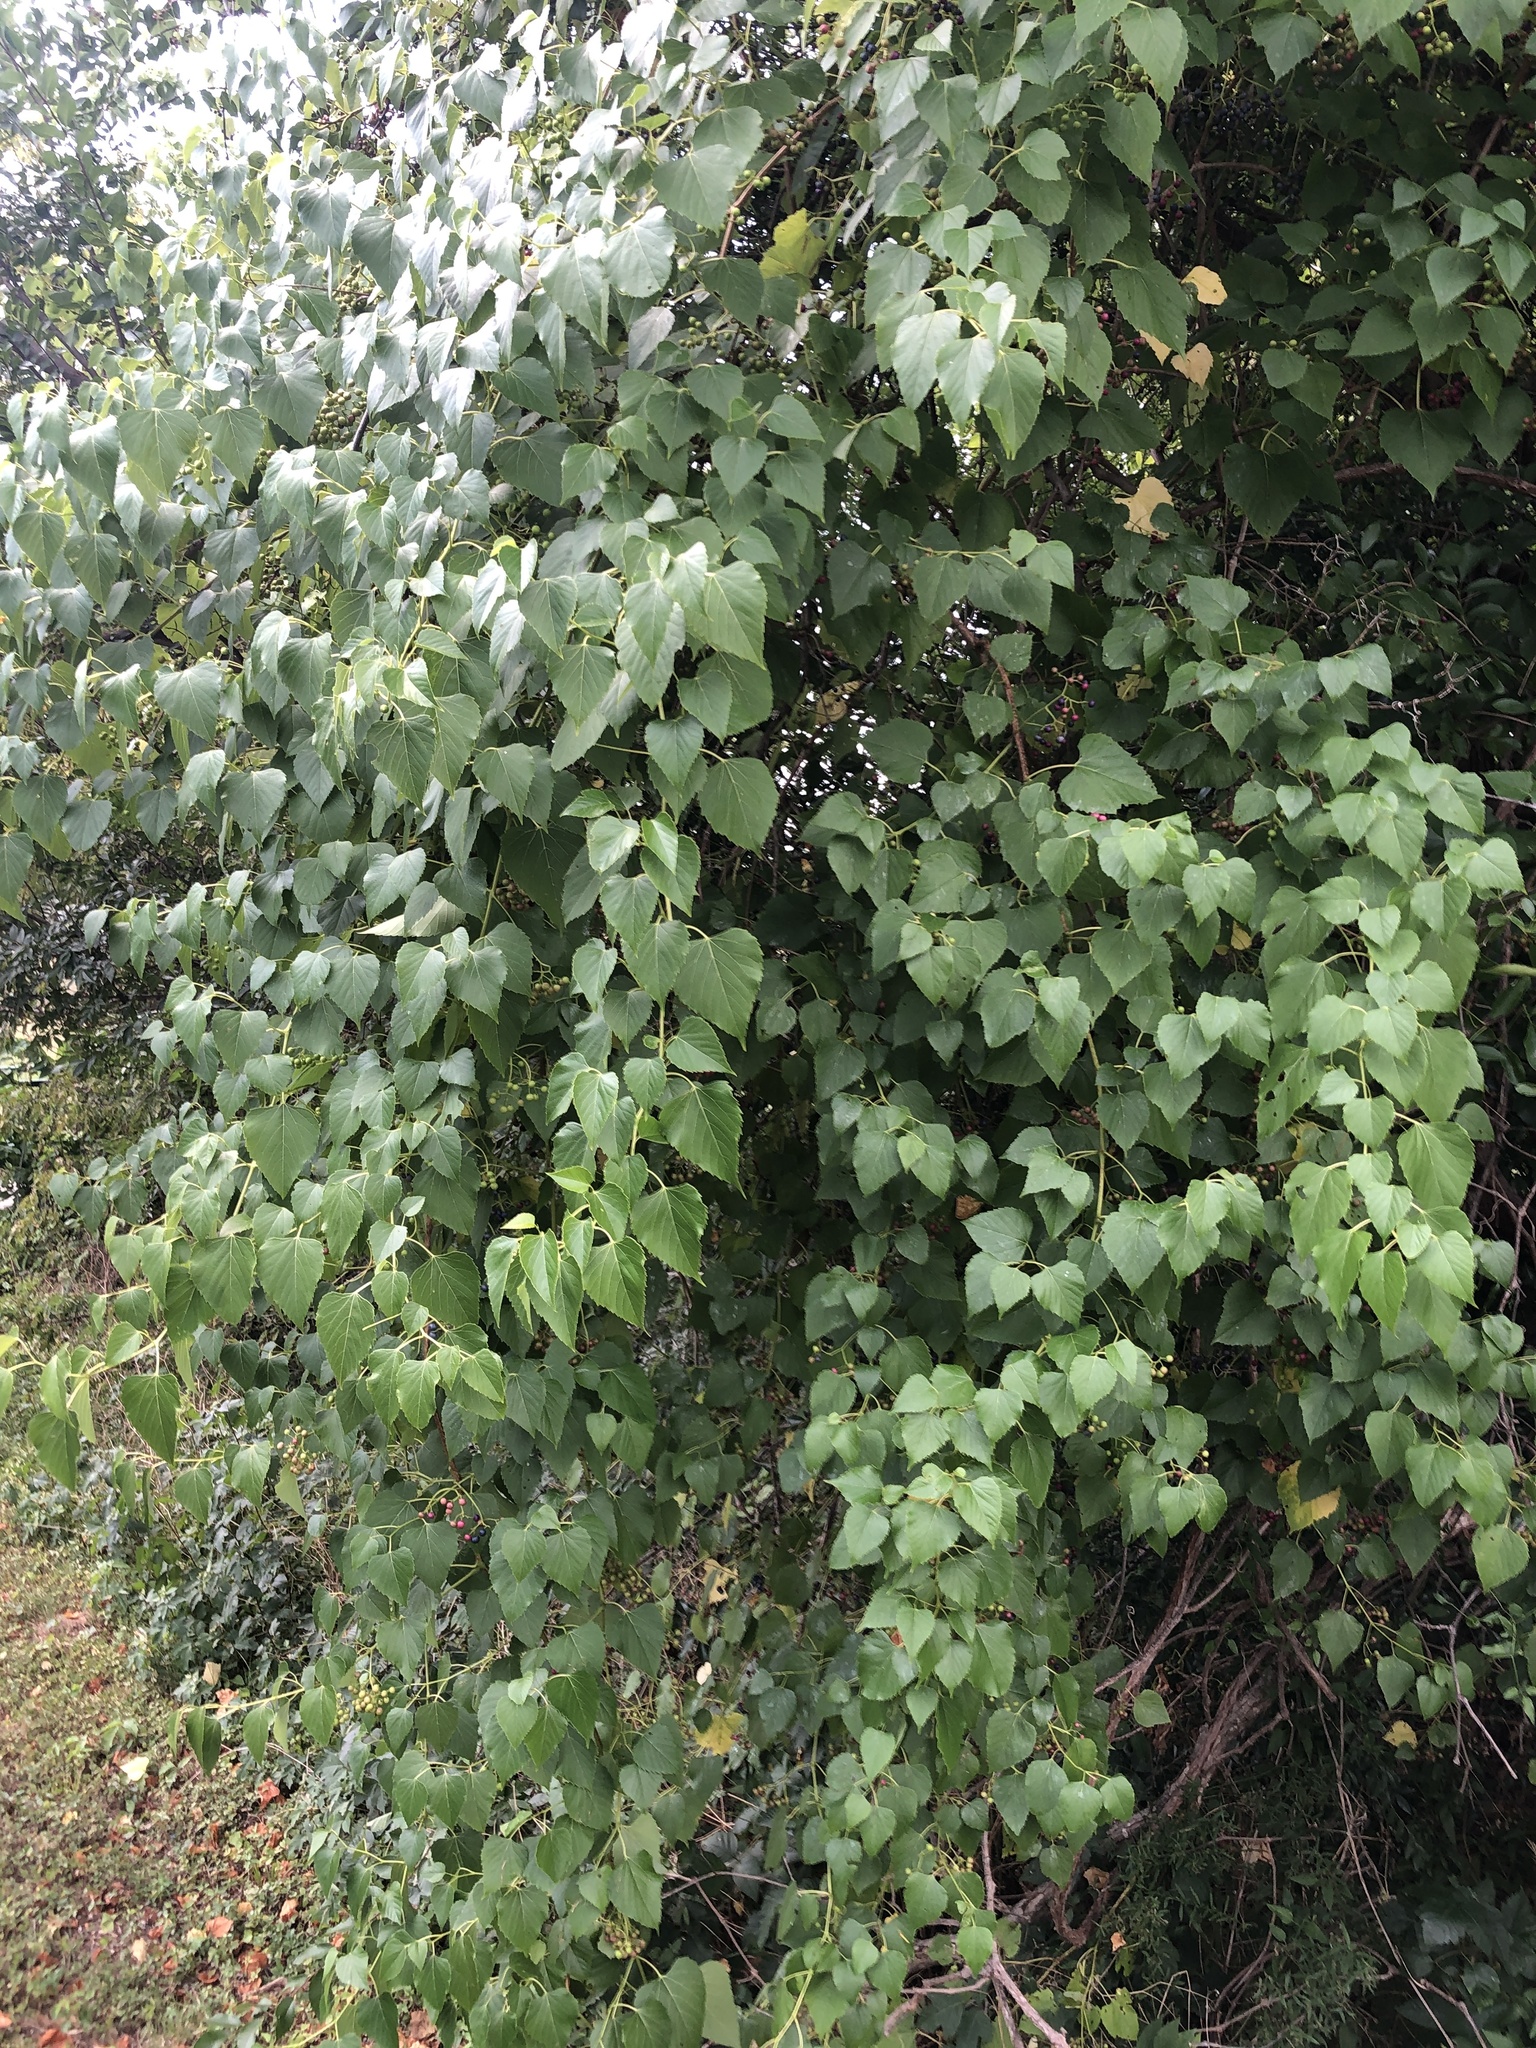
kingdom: Plantae
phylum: Tracheophyta
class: Magnoliopsida
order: Vitales
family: Vitaceae
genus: Ampelopsis
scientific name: Ampelopsis cordata
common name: Heart-leaf ampelopsis
